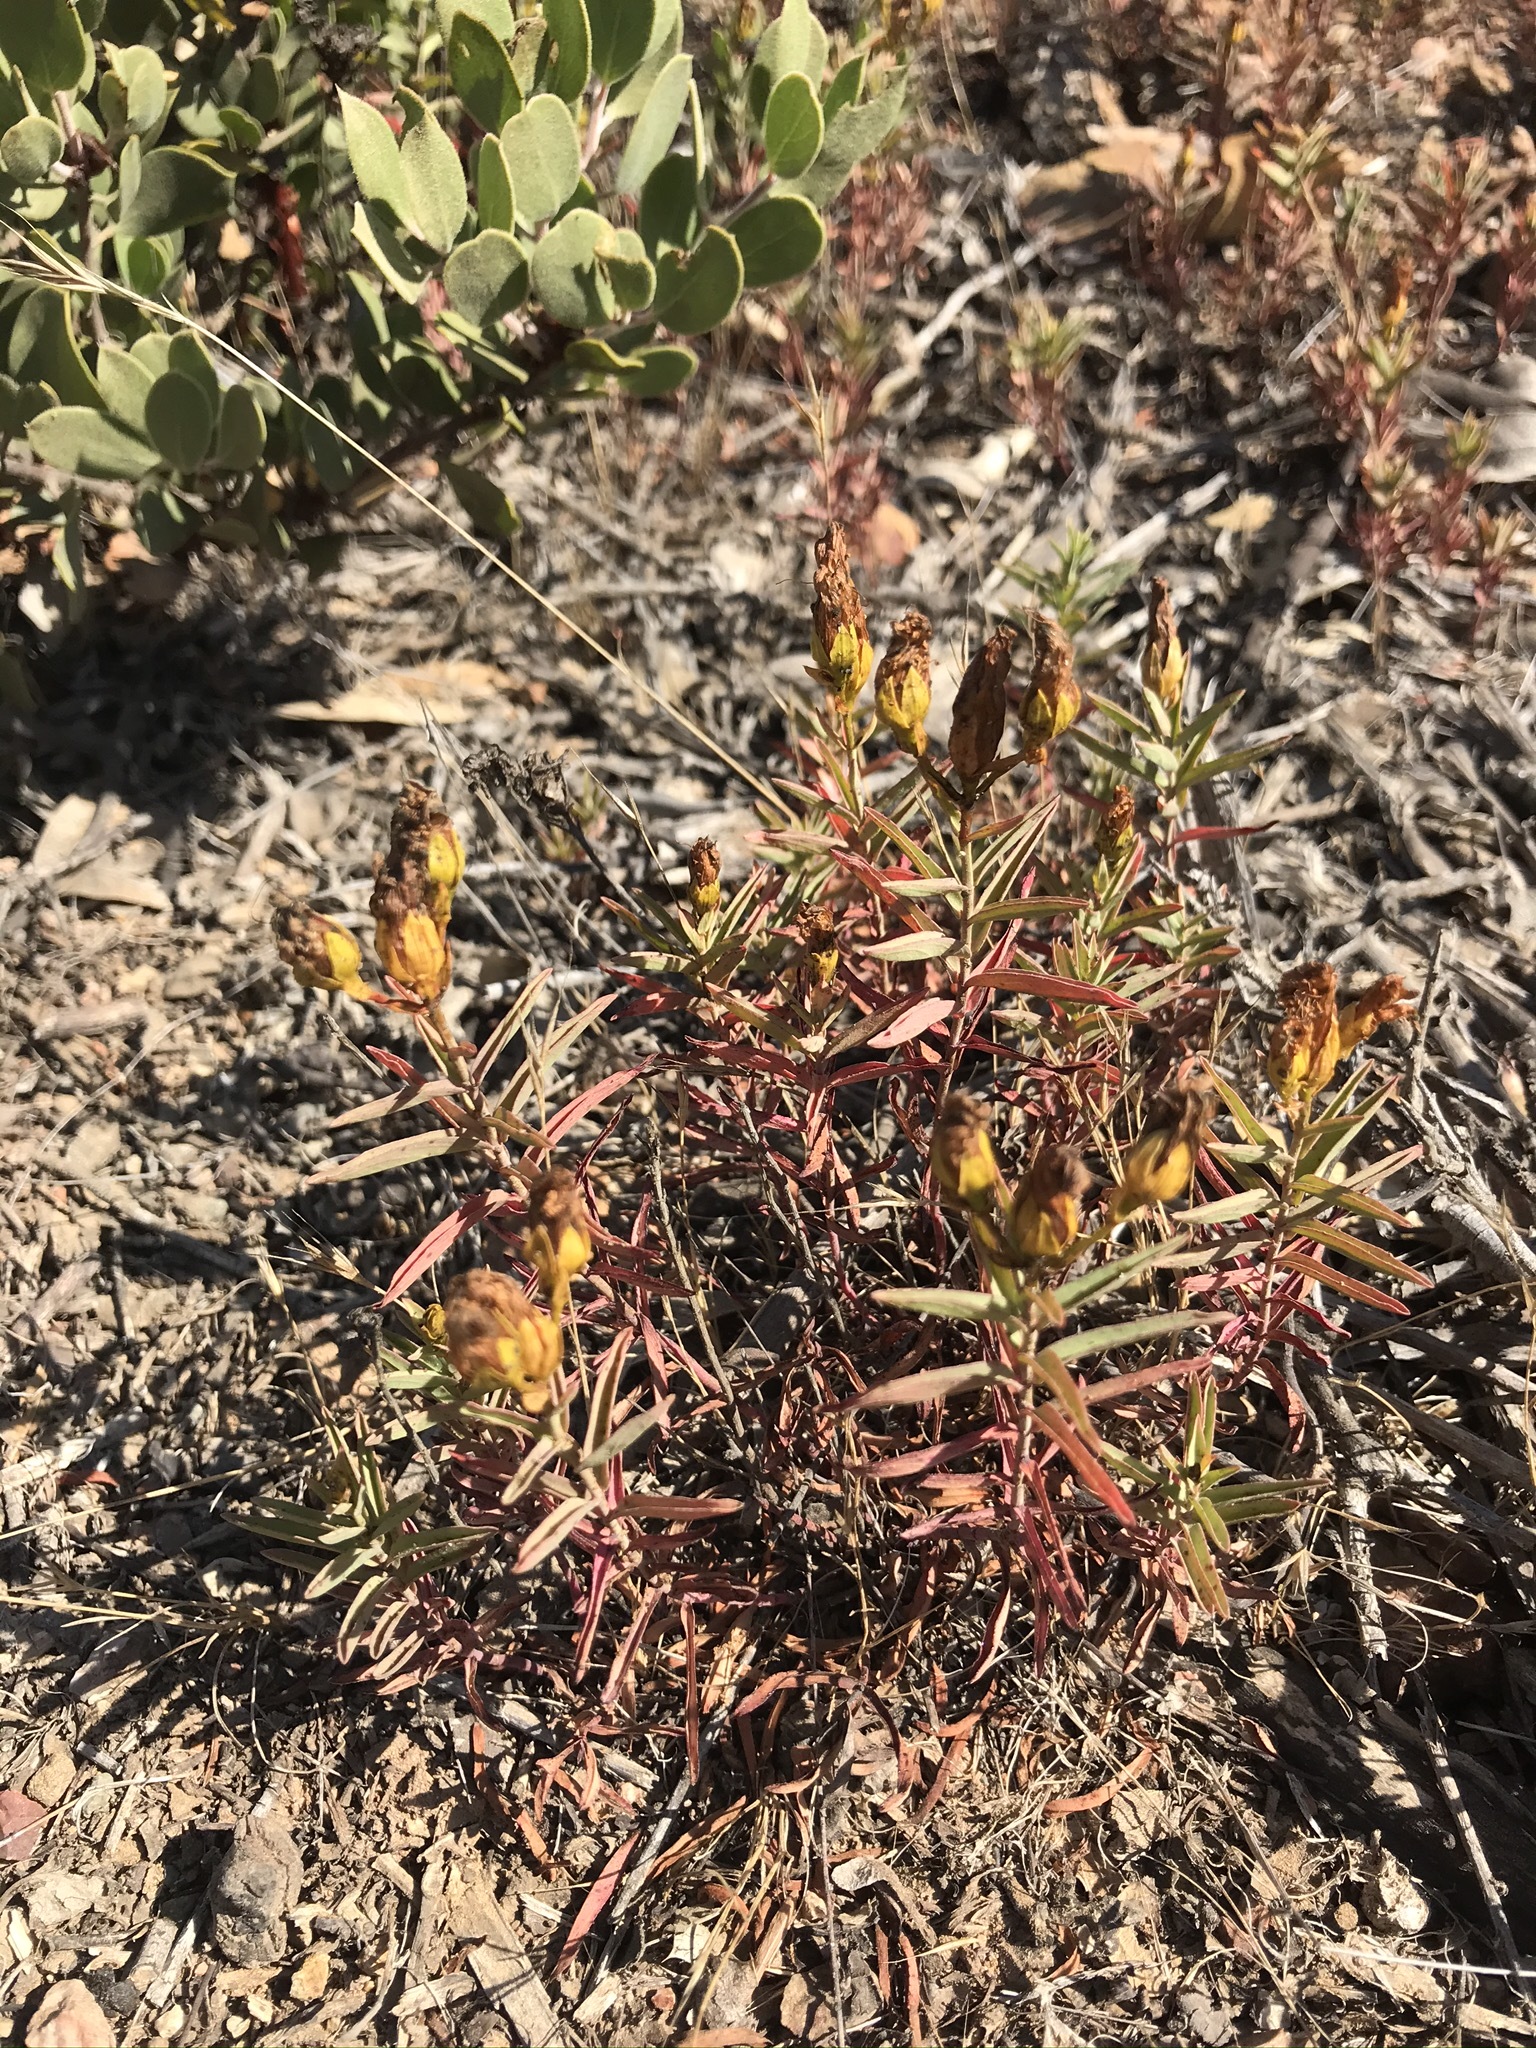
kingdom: Plantae
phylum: Tracheophyta
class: Magnoliopsida
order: Malpighiales
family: Hypericaceae
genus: Hypericum
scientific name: Hypericum concinnum
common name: Gold-wire
